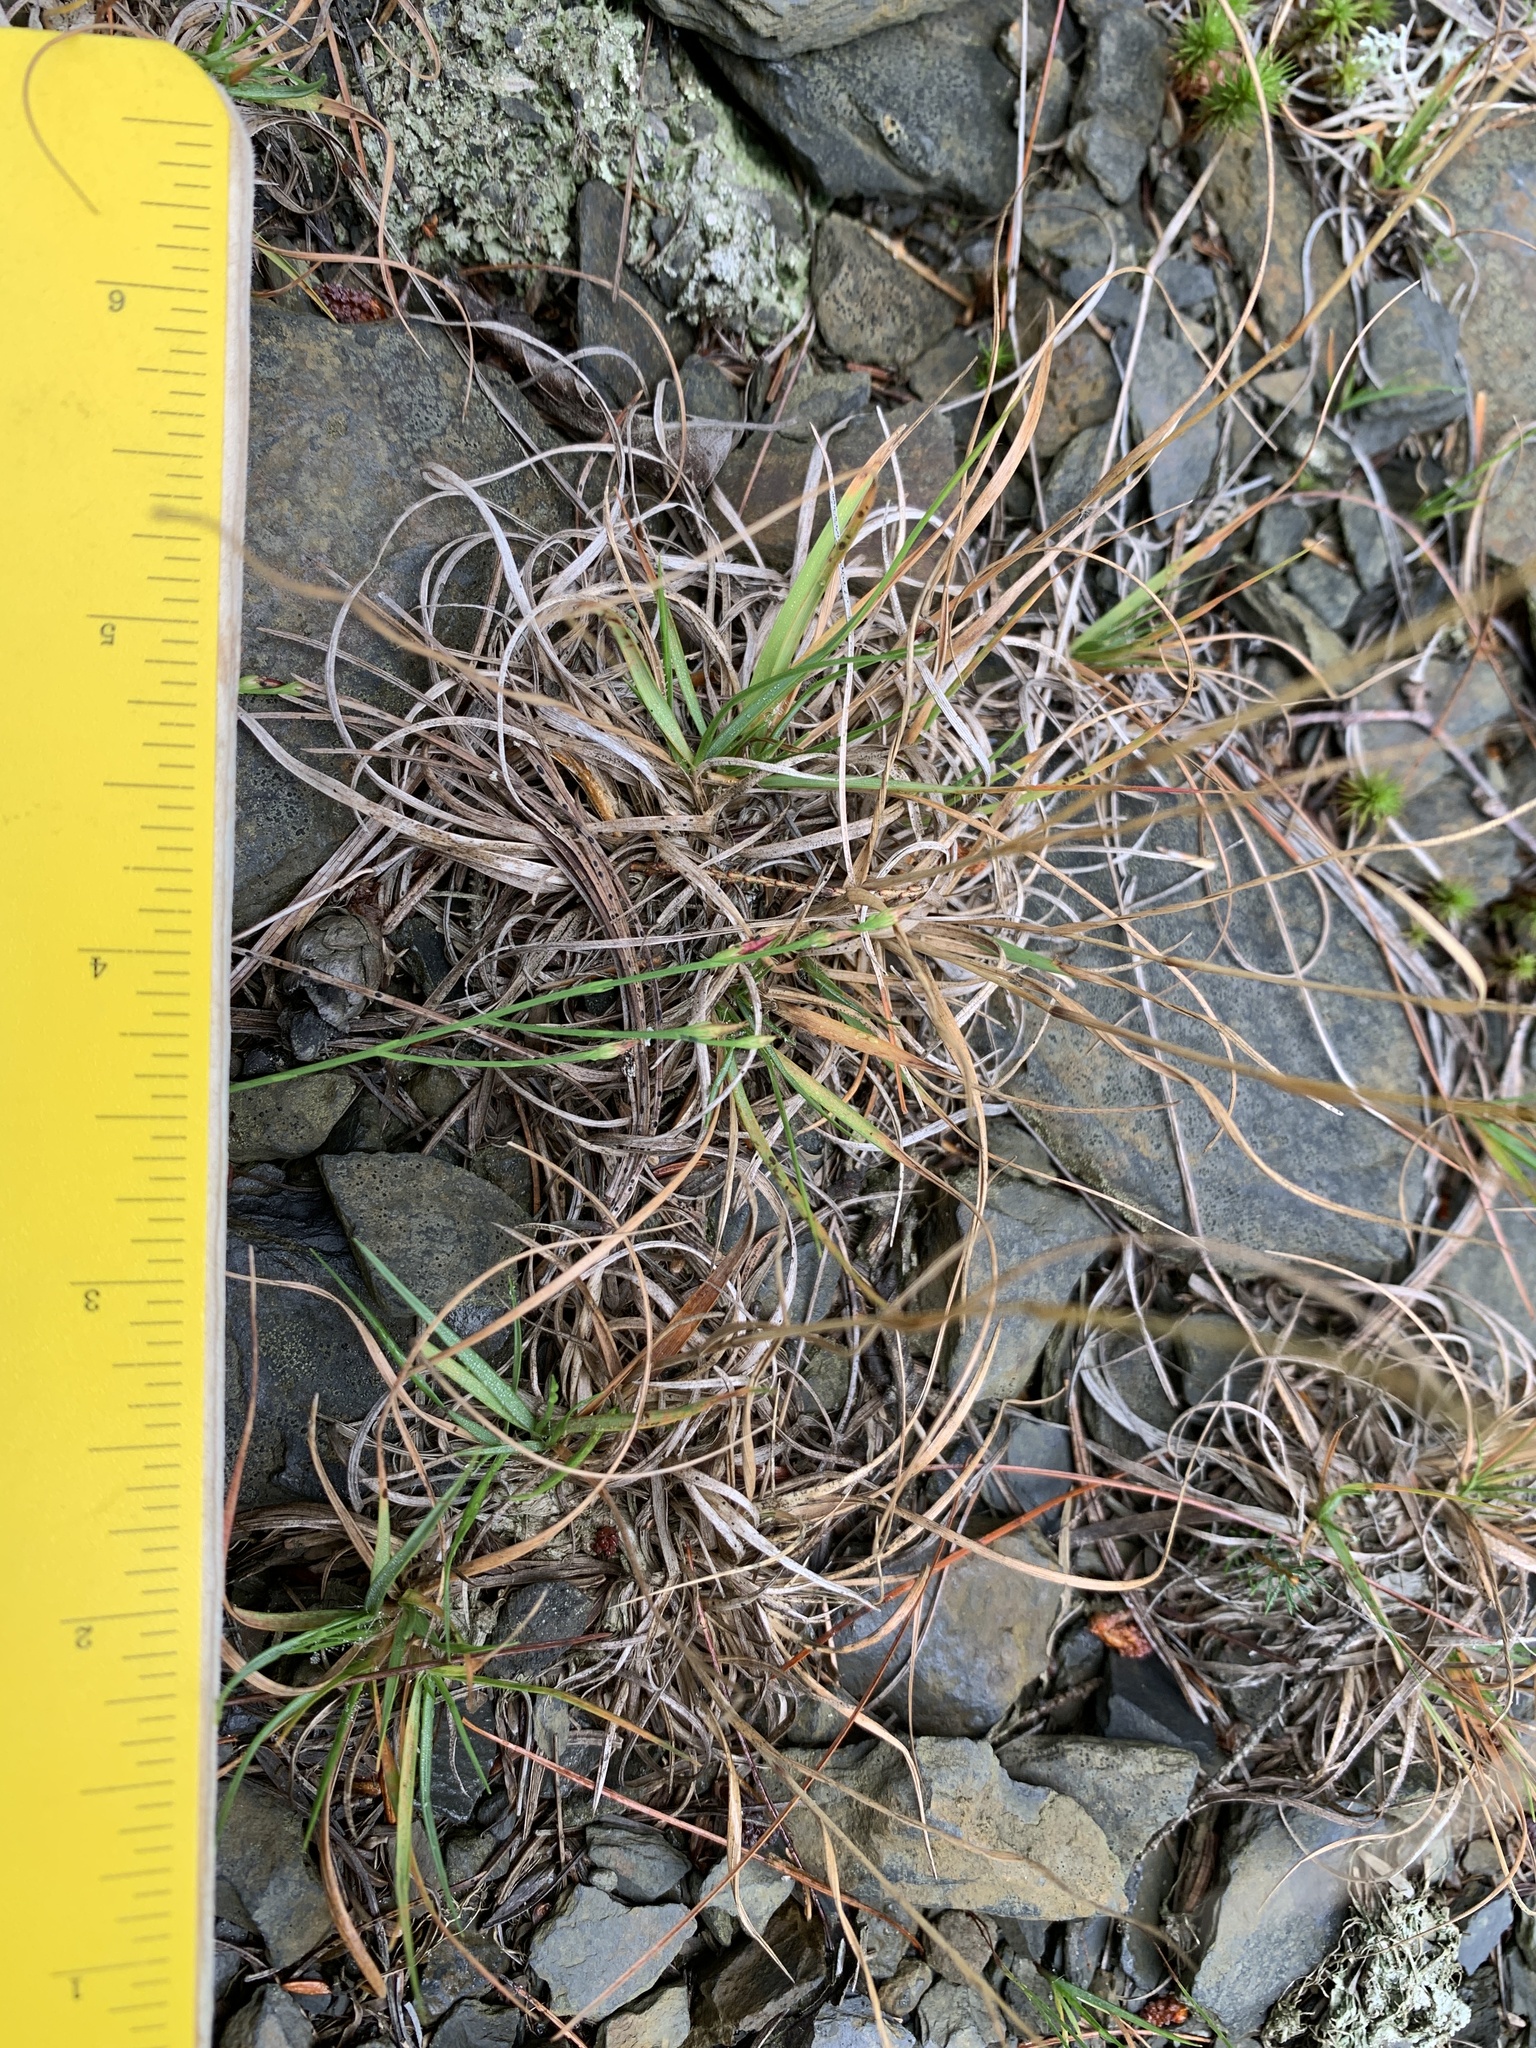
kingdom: Plantae
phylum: Tracheophyta
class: Liliopsida
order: Poales
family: Poaceae
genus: Danthonia
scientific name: Danthonia spicata
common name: Common wild oatgrass
